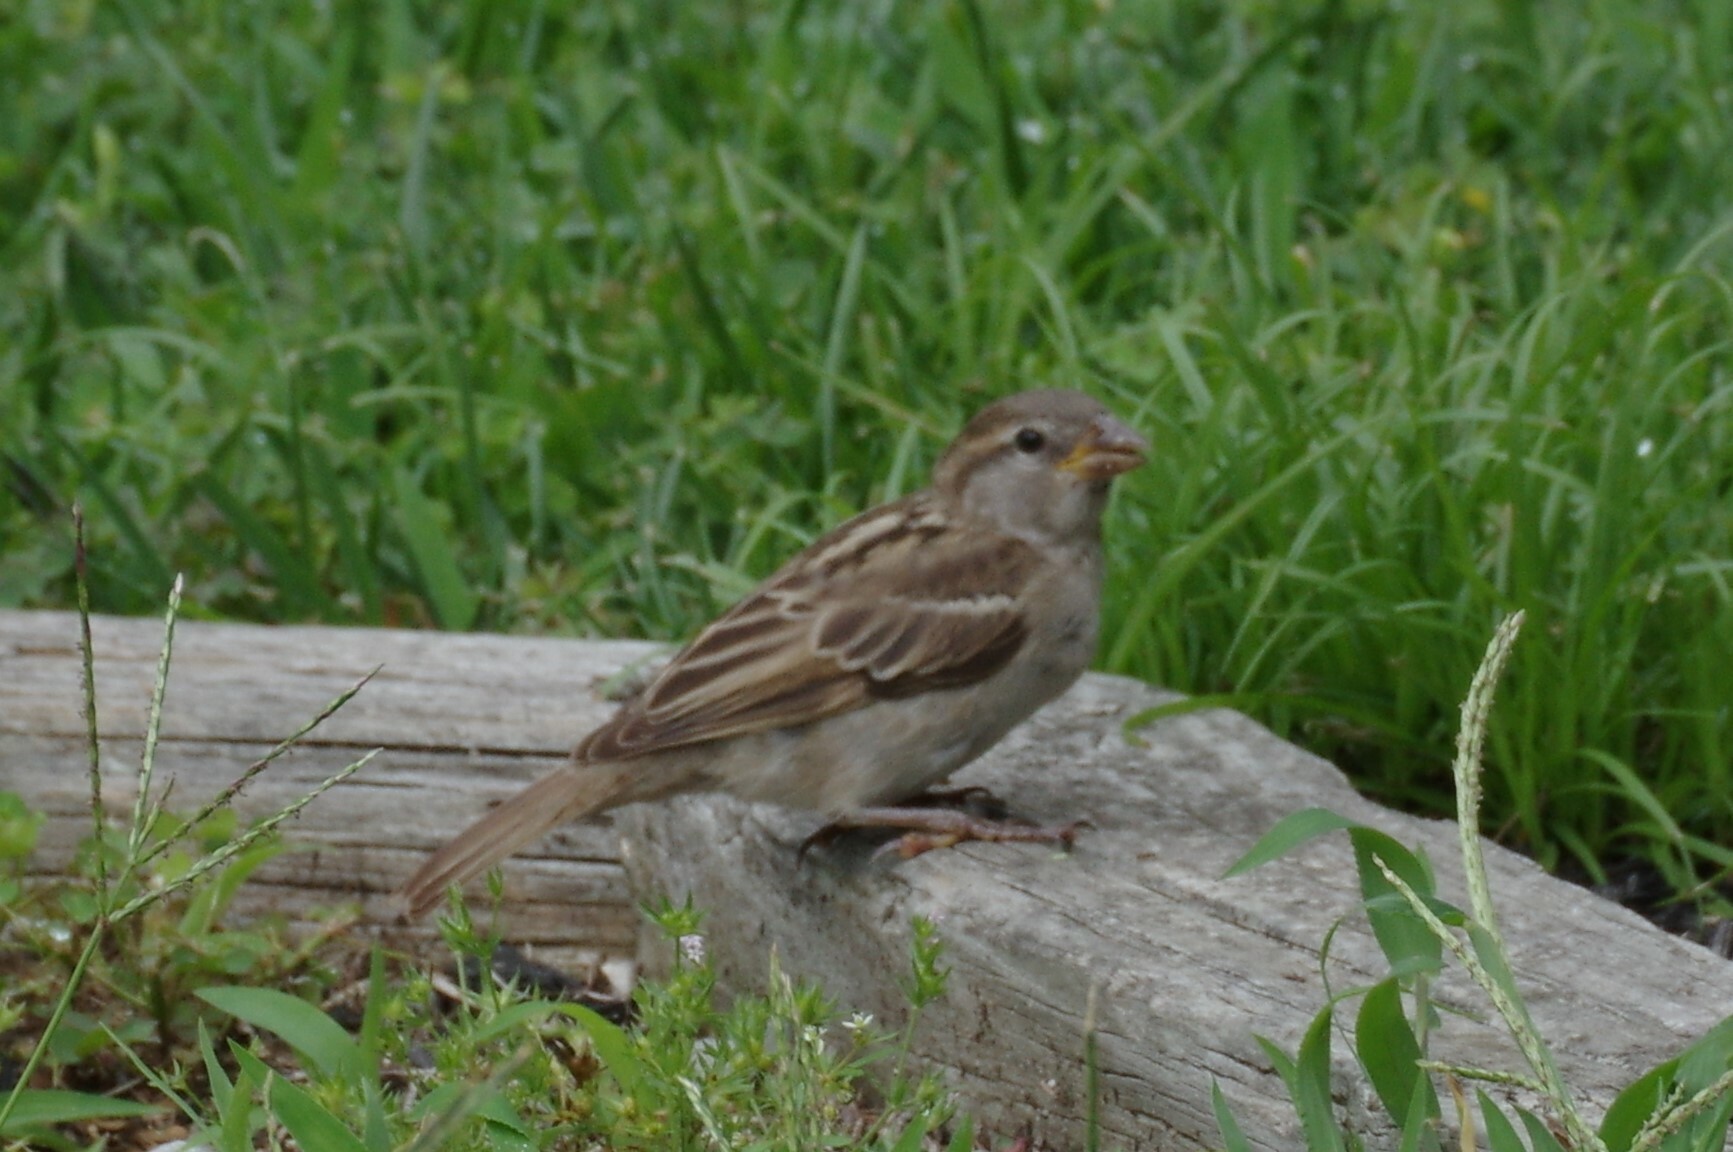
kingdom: Animalia
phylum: Chordata
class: Aves
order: Passeriformes
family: Passeridae
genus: Passer
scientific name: Passer domesticus
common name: House sparrow
